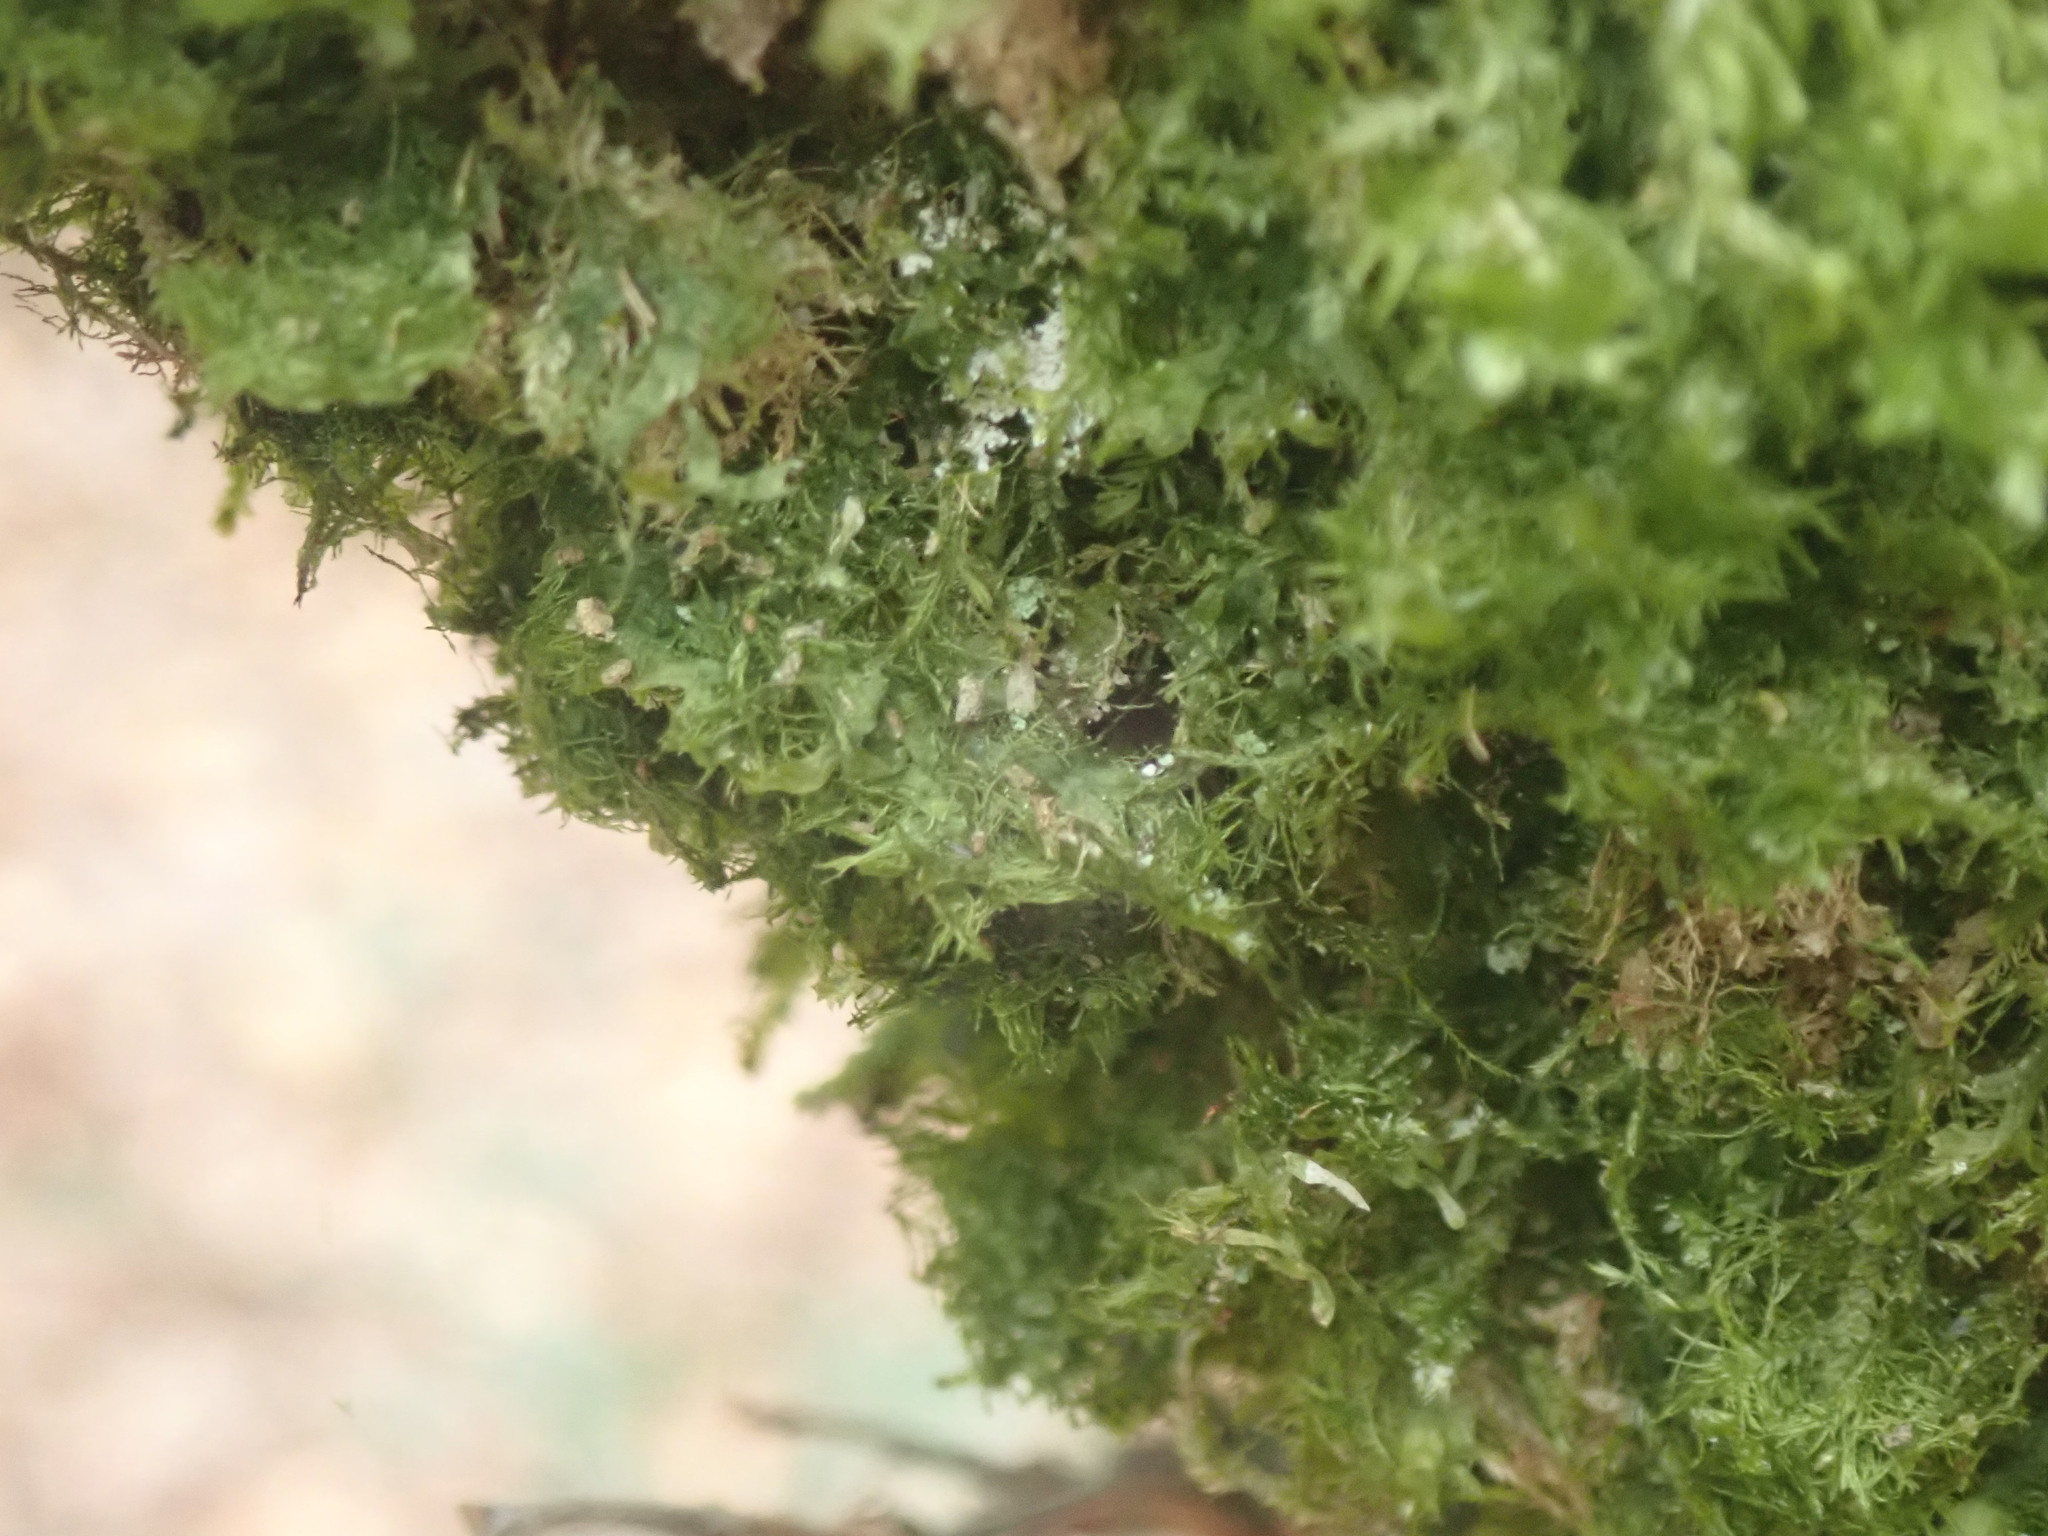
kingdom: Plantae
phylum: Bryophyta
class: Bryopsida
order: Hypnales
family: Neckeraceae
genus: Neckera
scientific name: Neckera pumila
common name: Dwarf neckera
